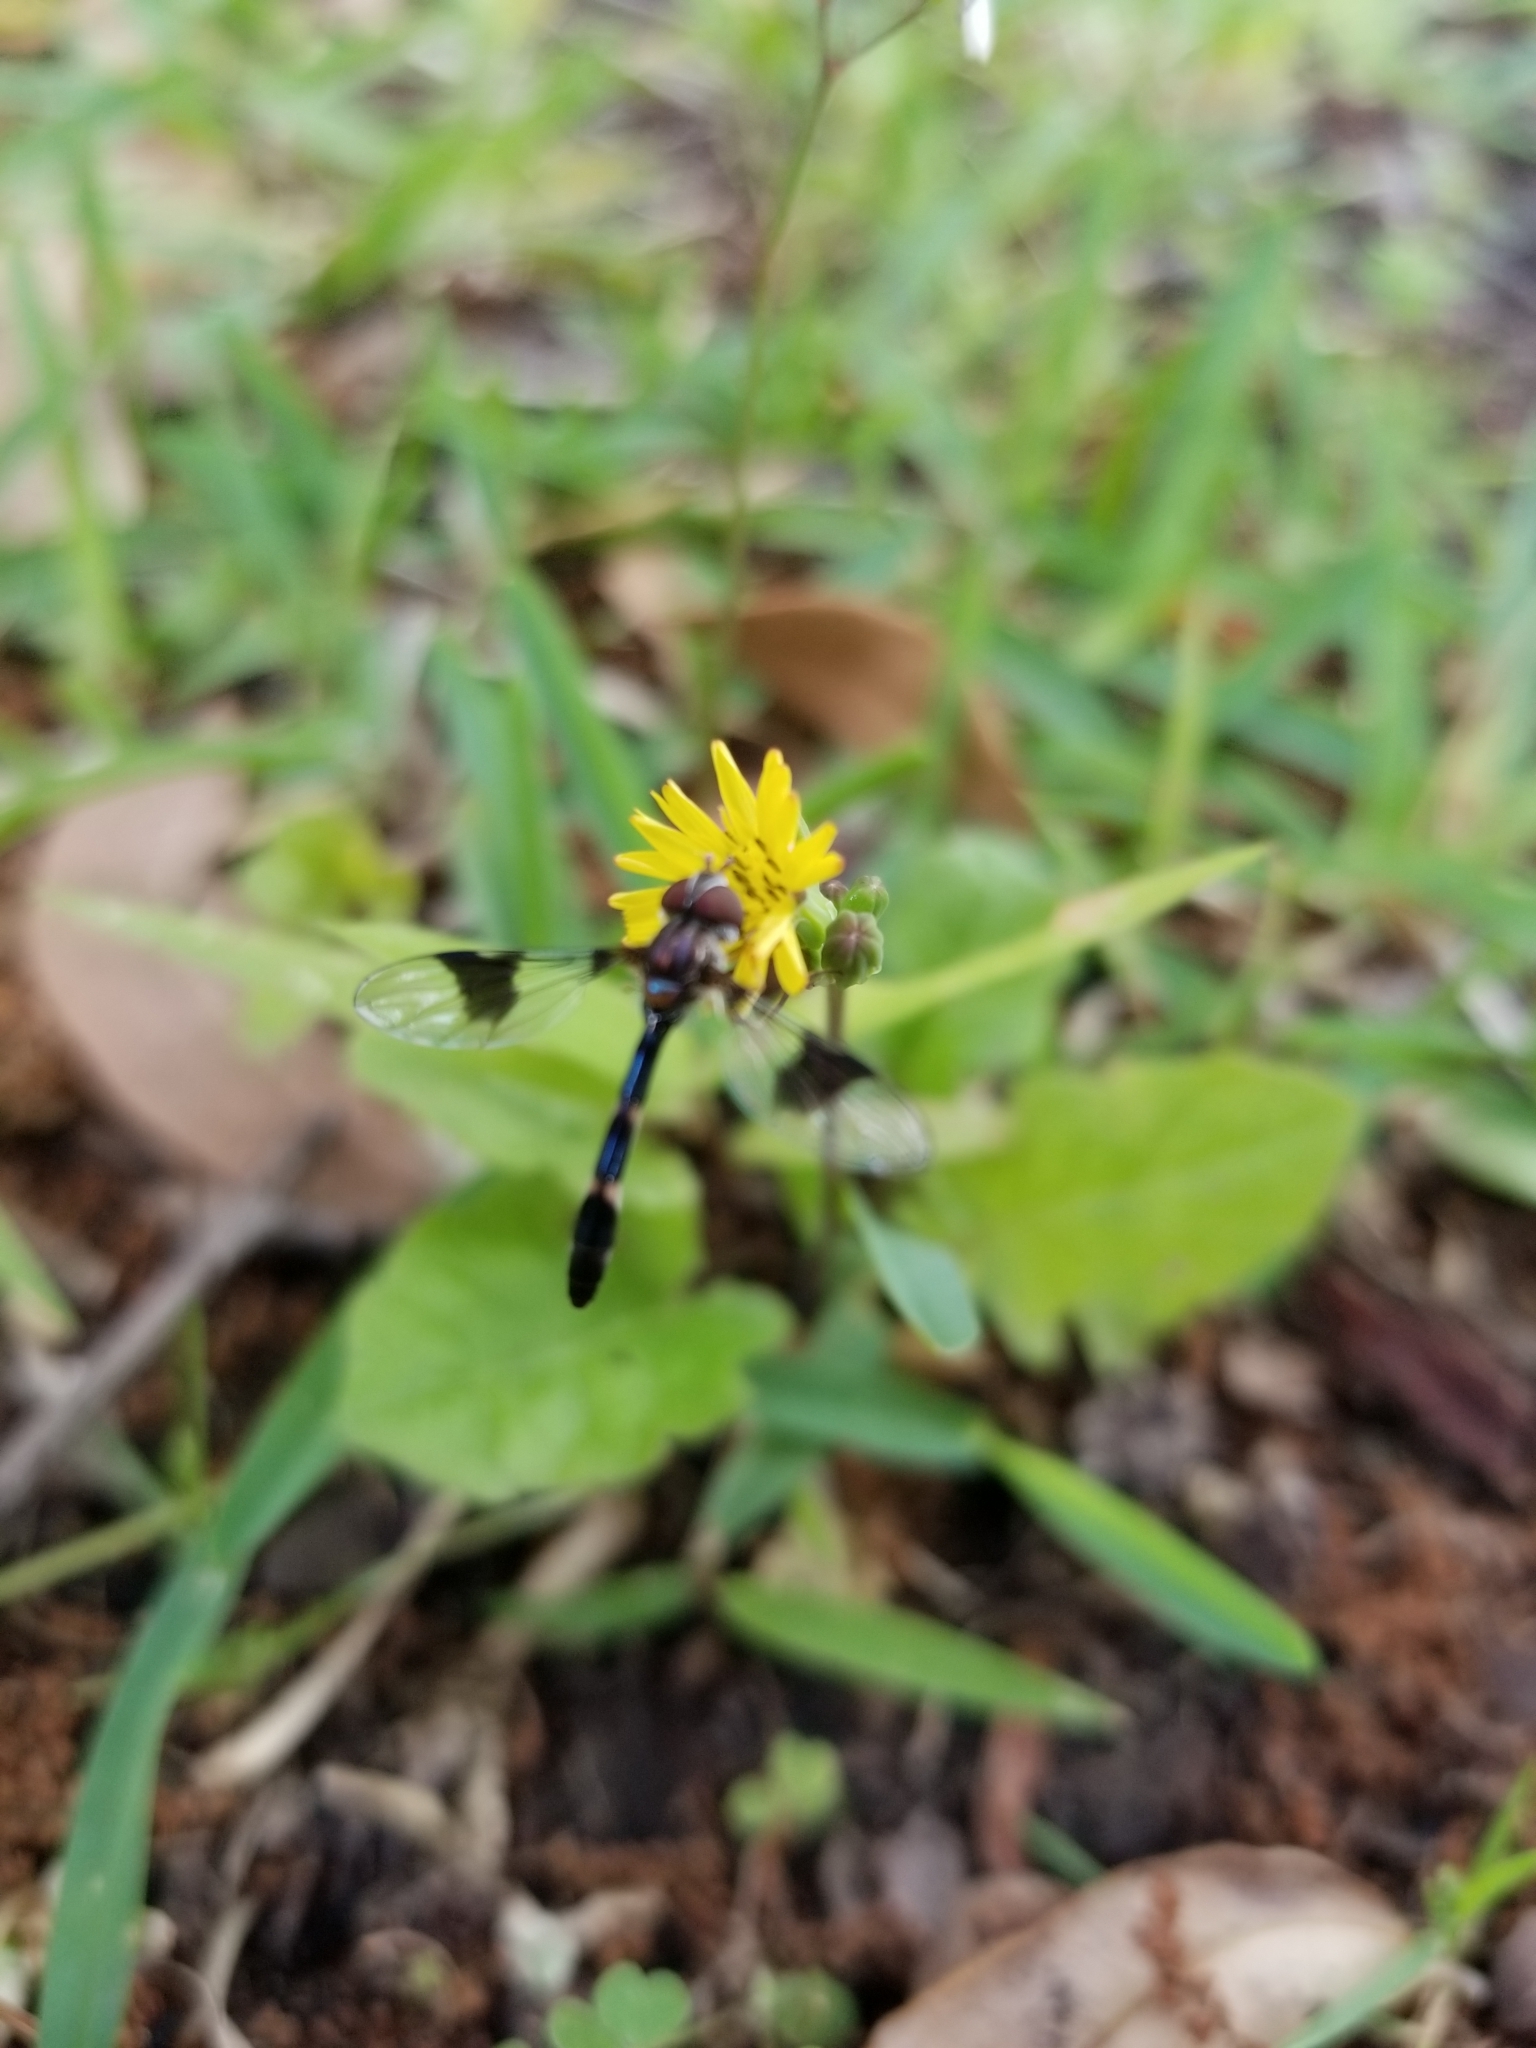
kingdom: Animalia
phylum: Arthropoda
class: Insecta
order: Diptera
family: Syrphidae
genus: Hypocritanus
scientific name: Hypocritanus fascipennis
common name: Eastern band-winged hover fly
